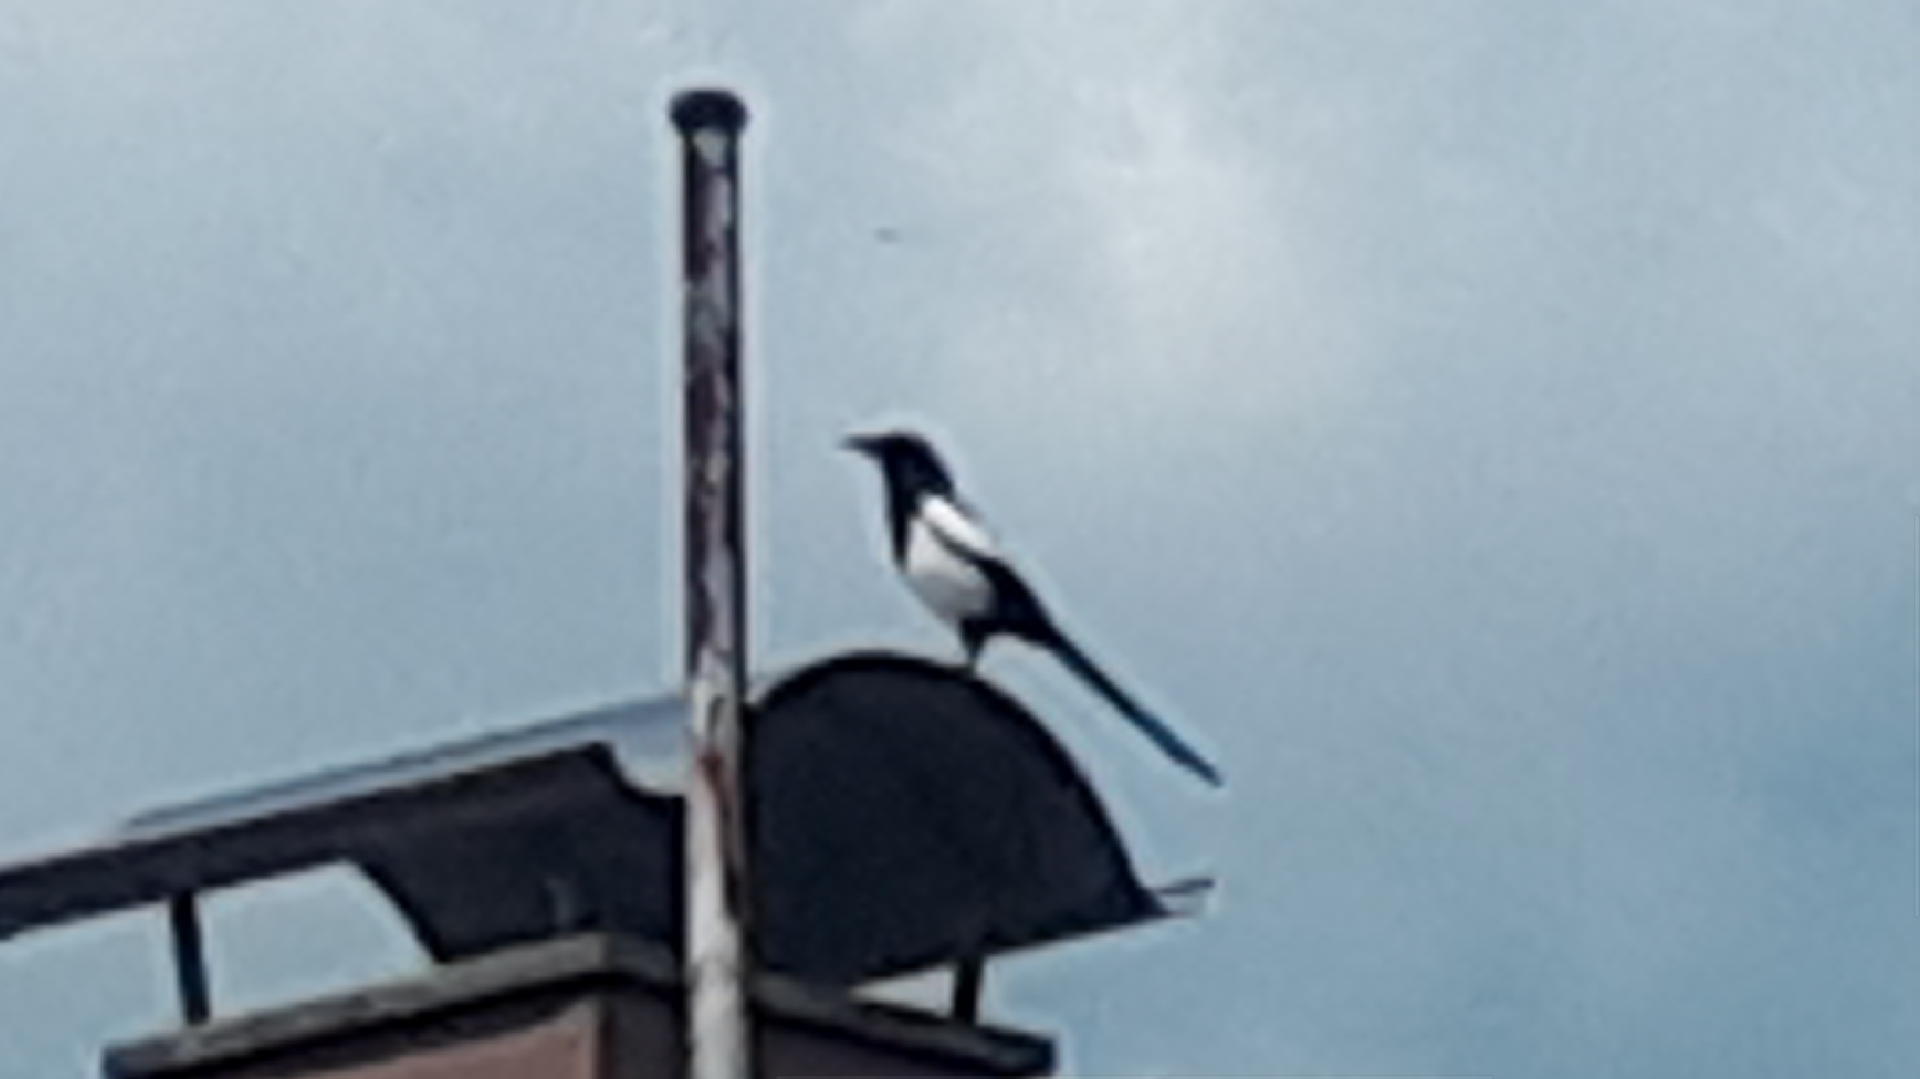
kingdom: Animalia
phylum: Chordata
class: Aves
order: Passeriformes
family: Corvidae
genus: Pica
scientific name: Pica pica
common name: Eurasian magpie
